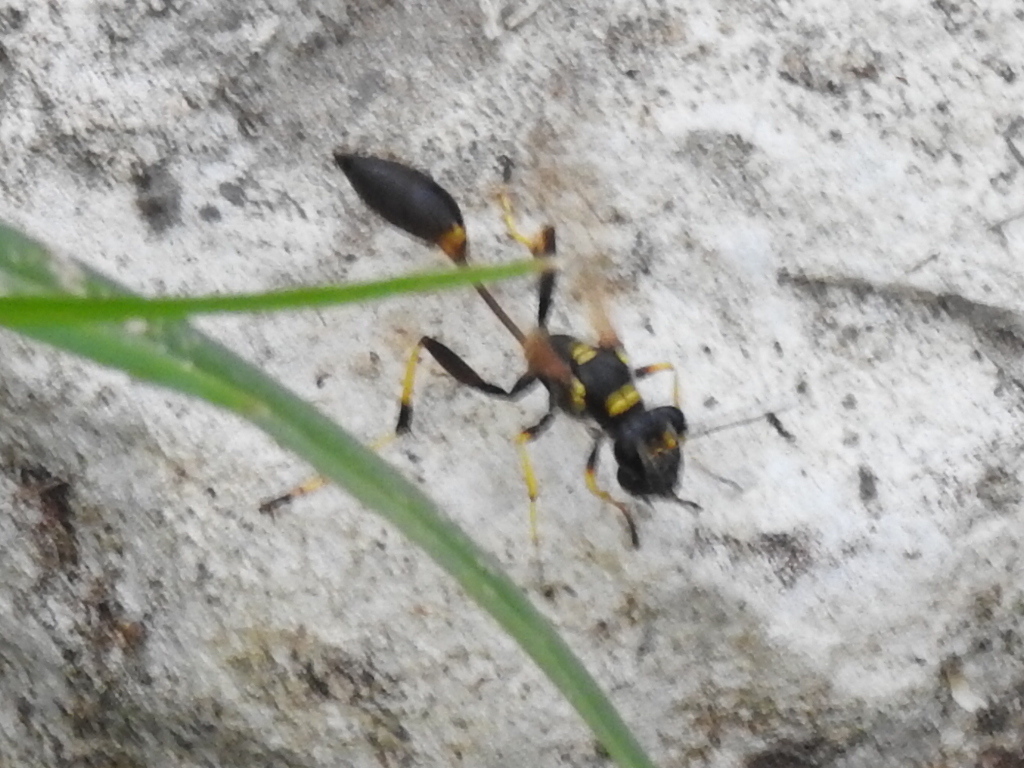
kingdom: Animalia
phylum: Arthropoda
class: Insecta
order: Hymenoptera
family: Sphecidae
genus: Sceliphron
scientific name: Sceliphron caementarium
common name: Mud dauber
